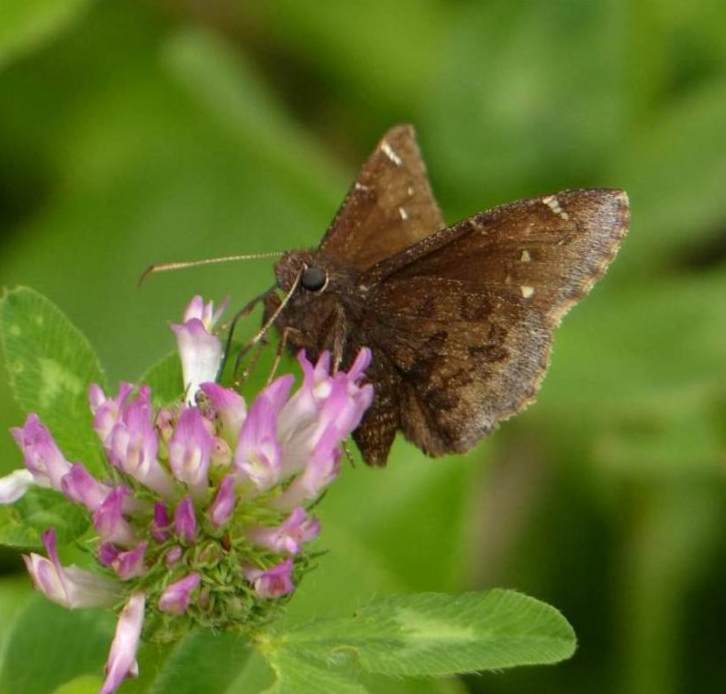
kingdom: Animalia
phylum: Arthropoda
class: Insecta
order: Lepidoptera
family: Hesperiidae
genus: Thorybes
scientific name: Thorybes pylades
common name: Northern cloudywing
